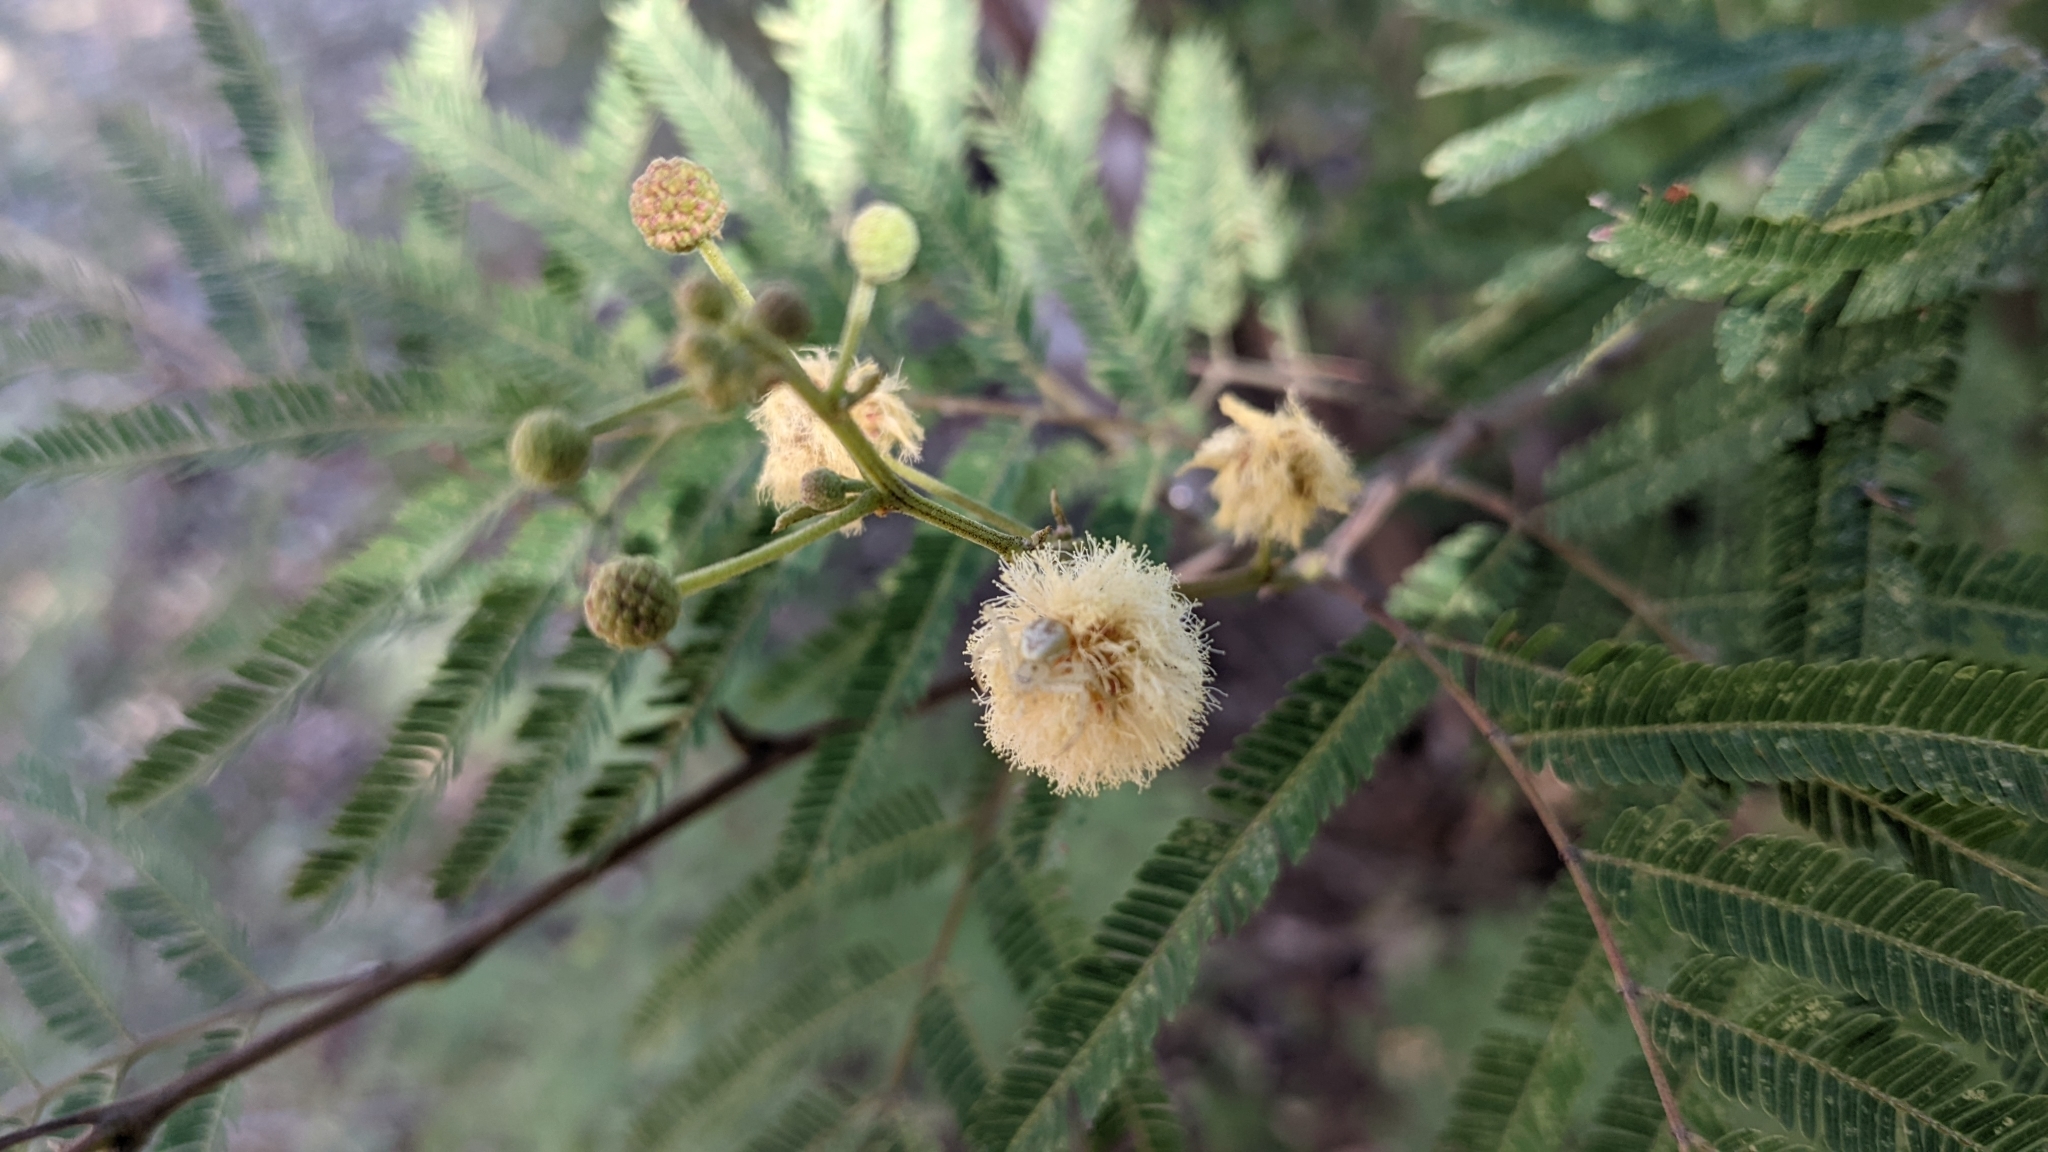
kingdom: Plantae
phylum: Tracheophyta
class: Magnoliopsida
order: Fabales
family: Fabaceae
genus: Senegalia
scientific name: Senegalia berlandieri
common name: Berlandier acacia
